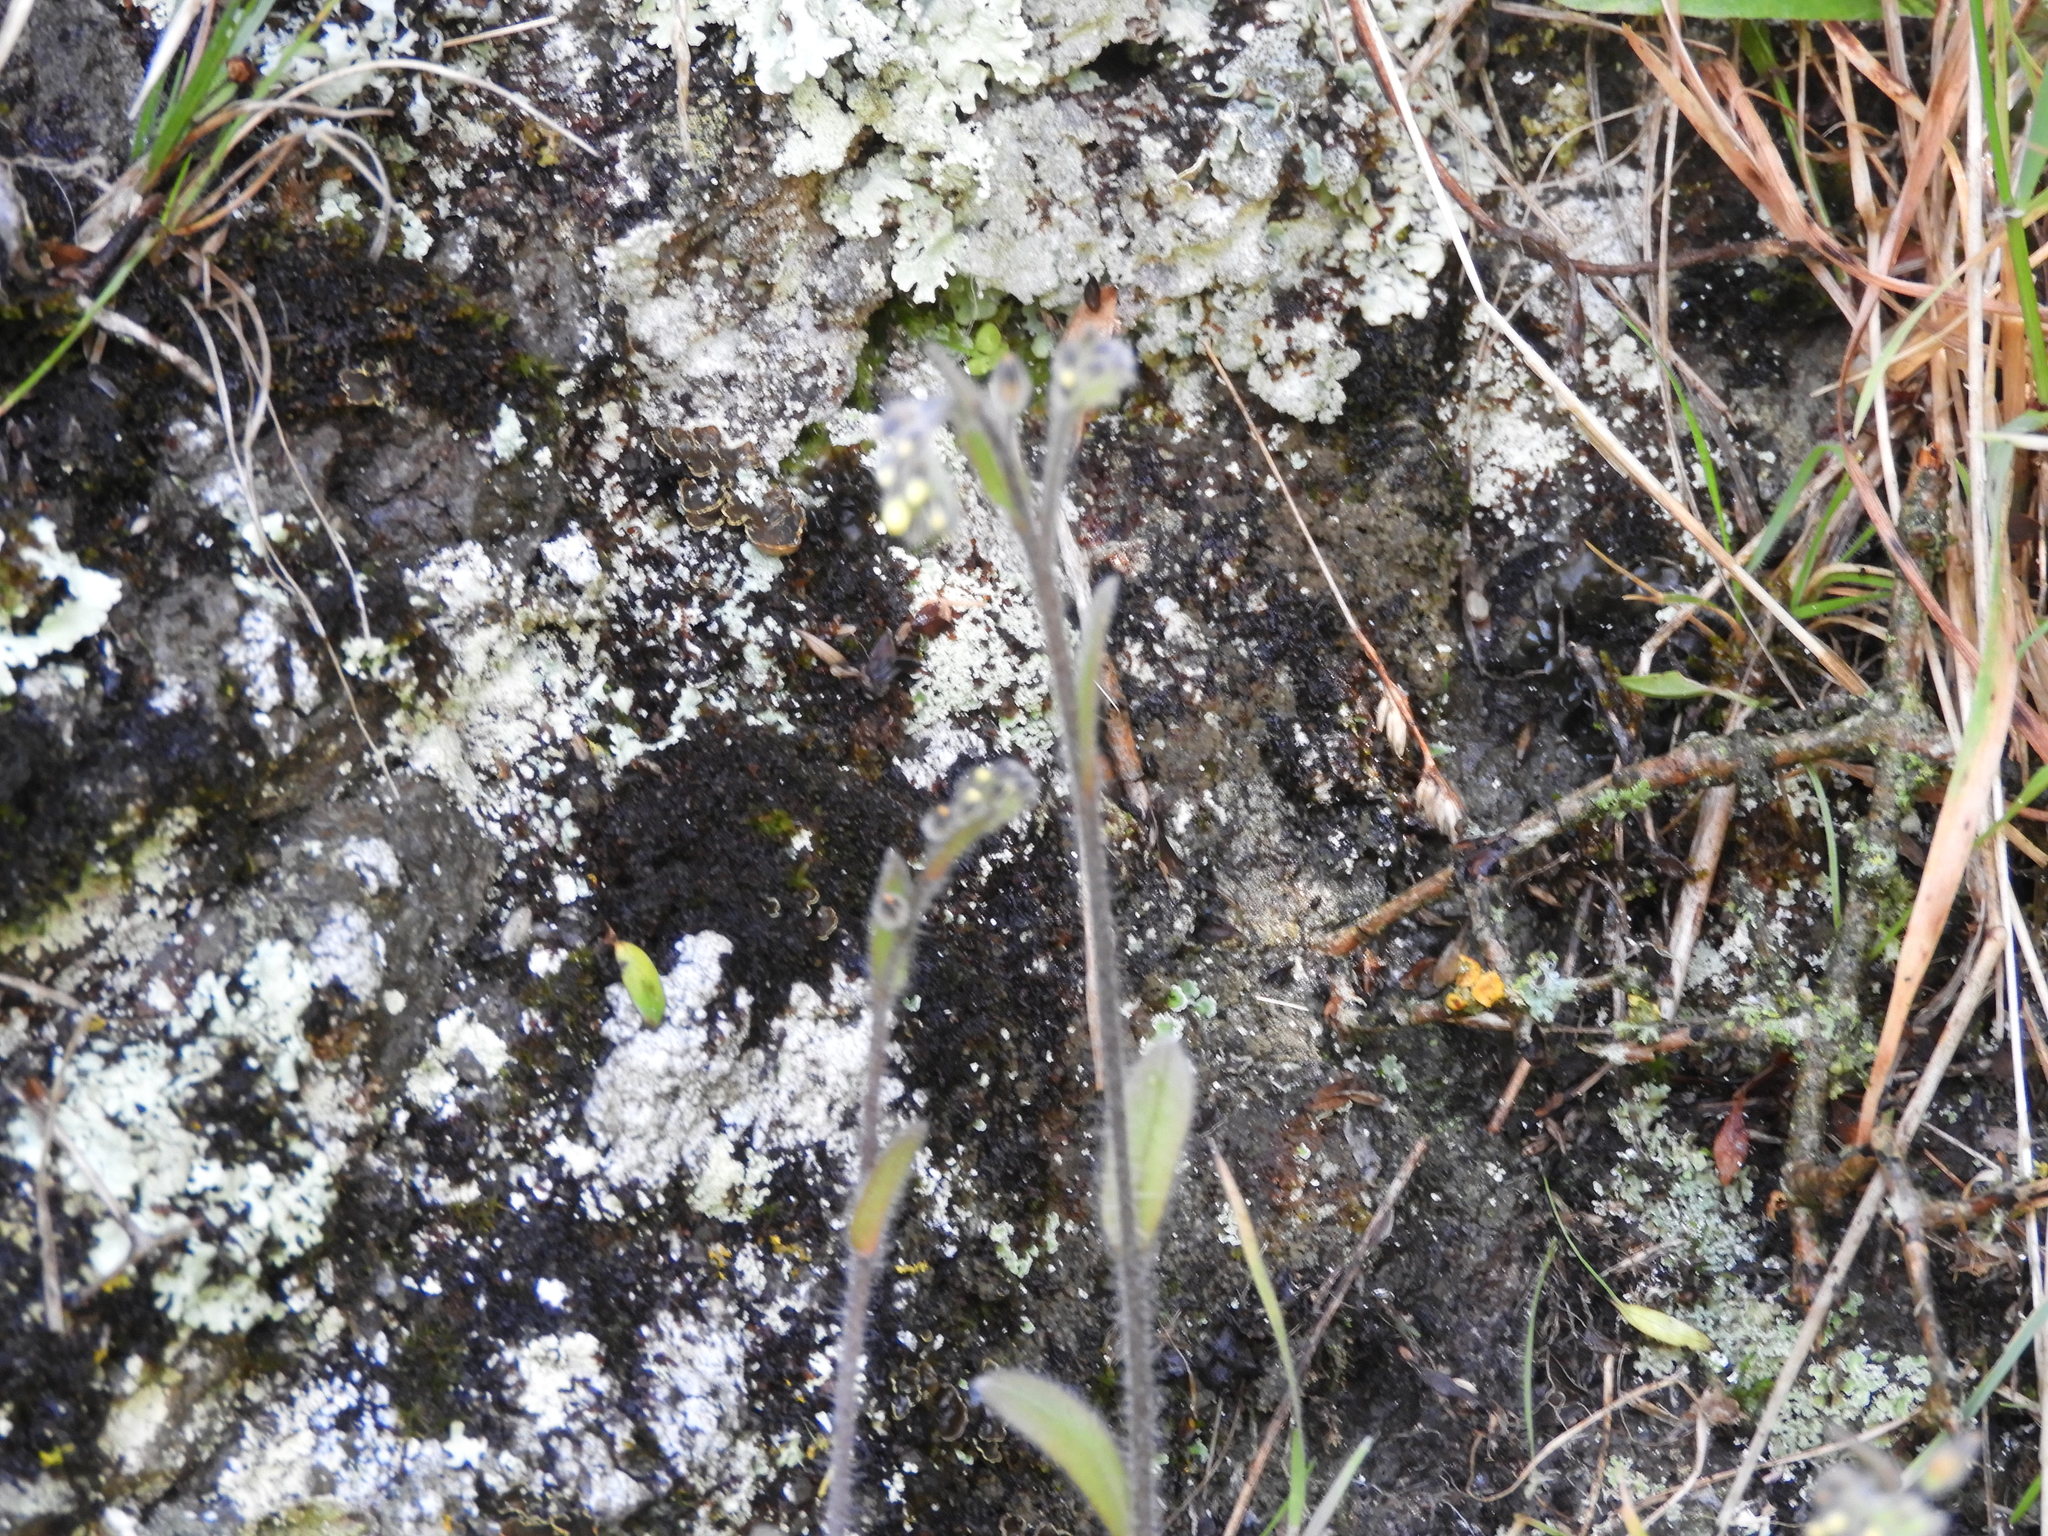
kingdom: Plantae
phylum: Tracheophyta
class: Magnoliopsida
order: Boraginales
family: Boraginaceae
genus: Myosotis
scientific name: Myosotis australis
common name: Australian forget-me-not
